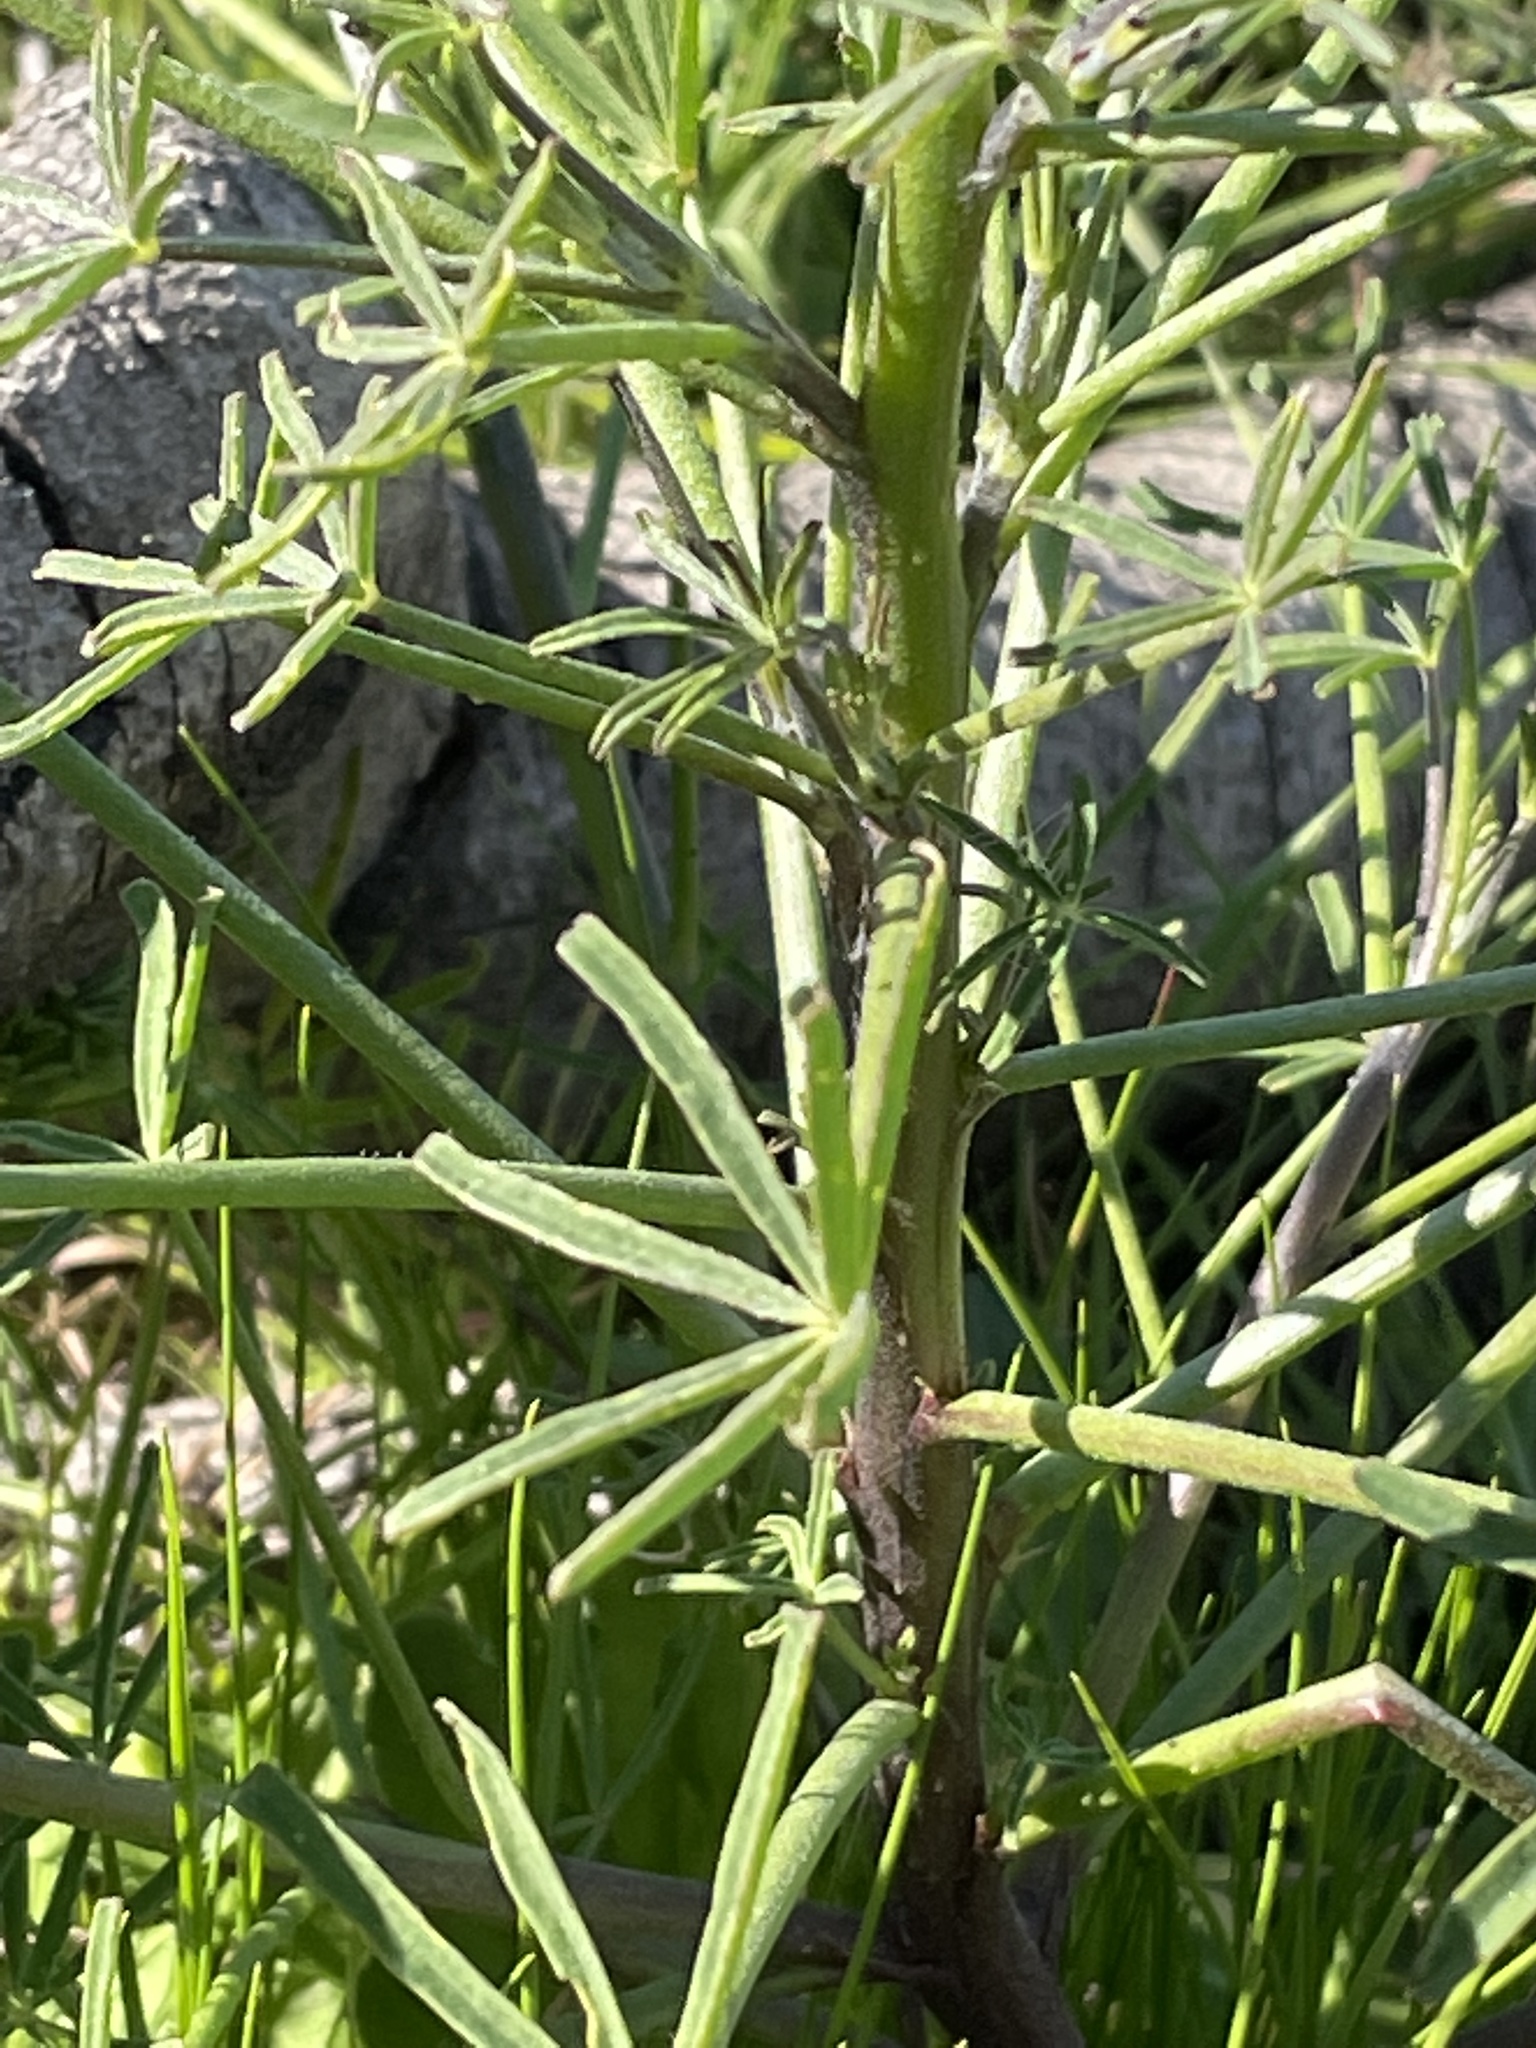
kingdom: Plantae
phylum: Tracheophyta
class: Magnoliopsida
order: Fabales
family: Fabaceae
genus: Lupinus
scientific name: Lupinus truncatus
